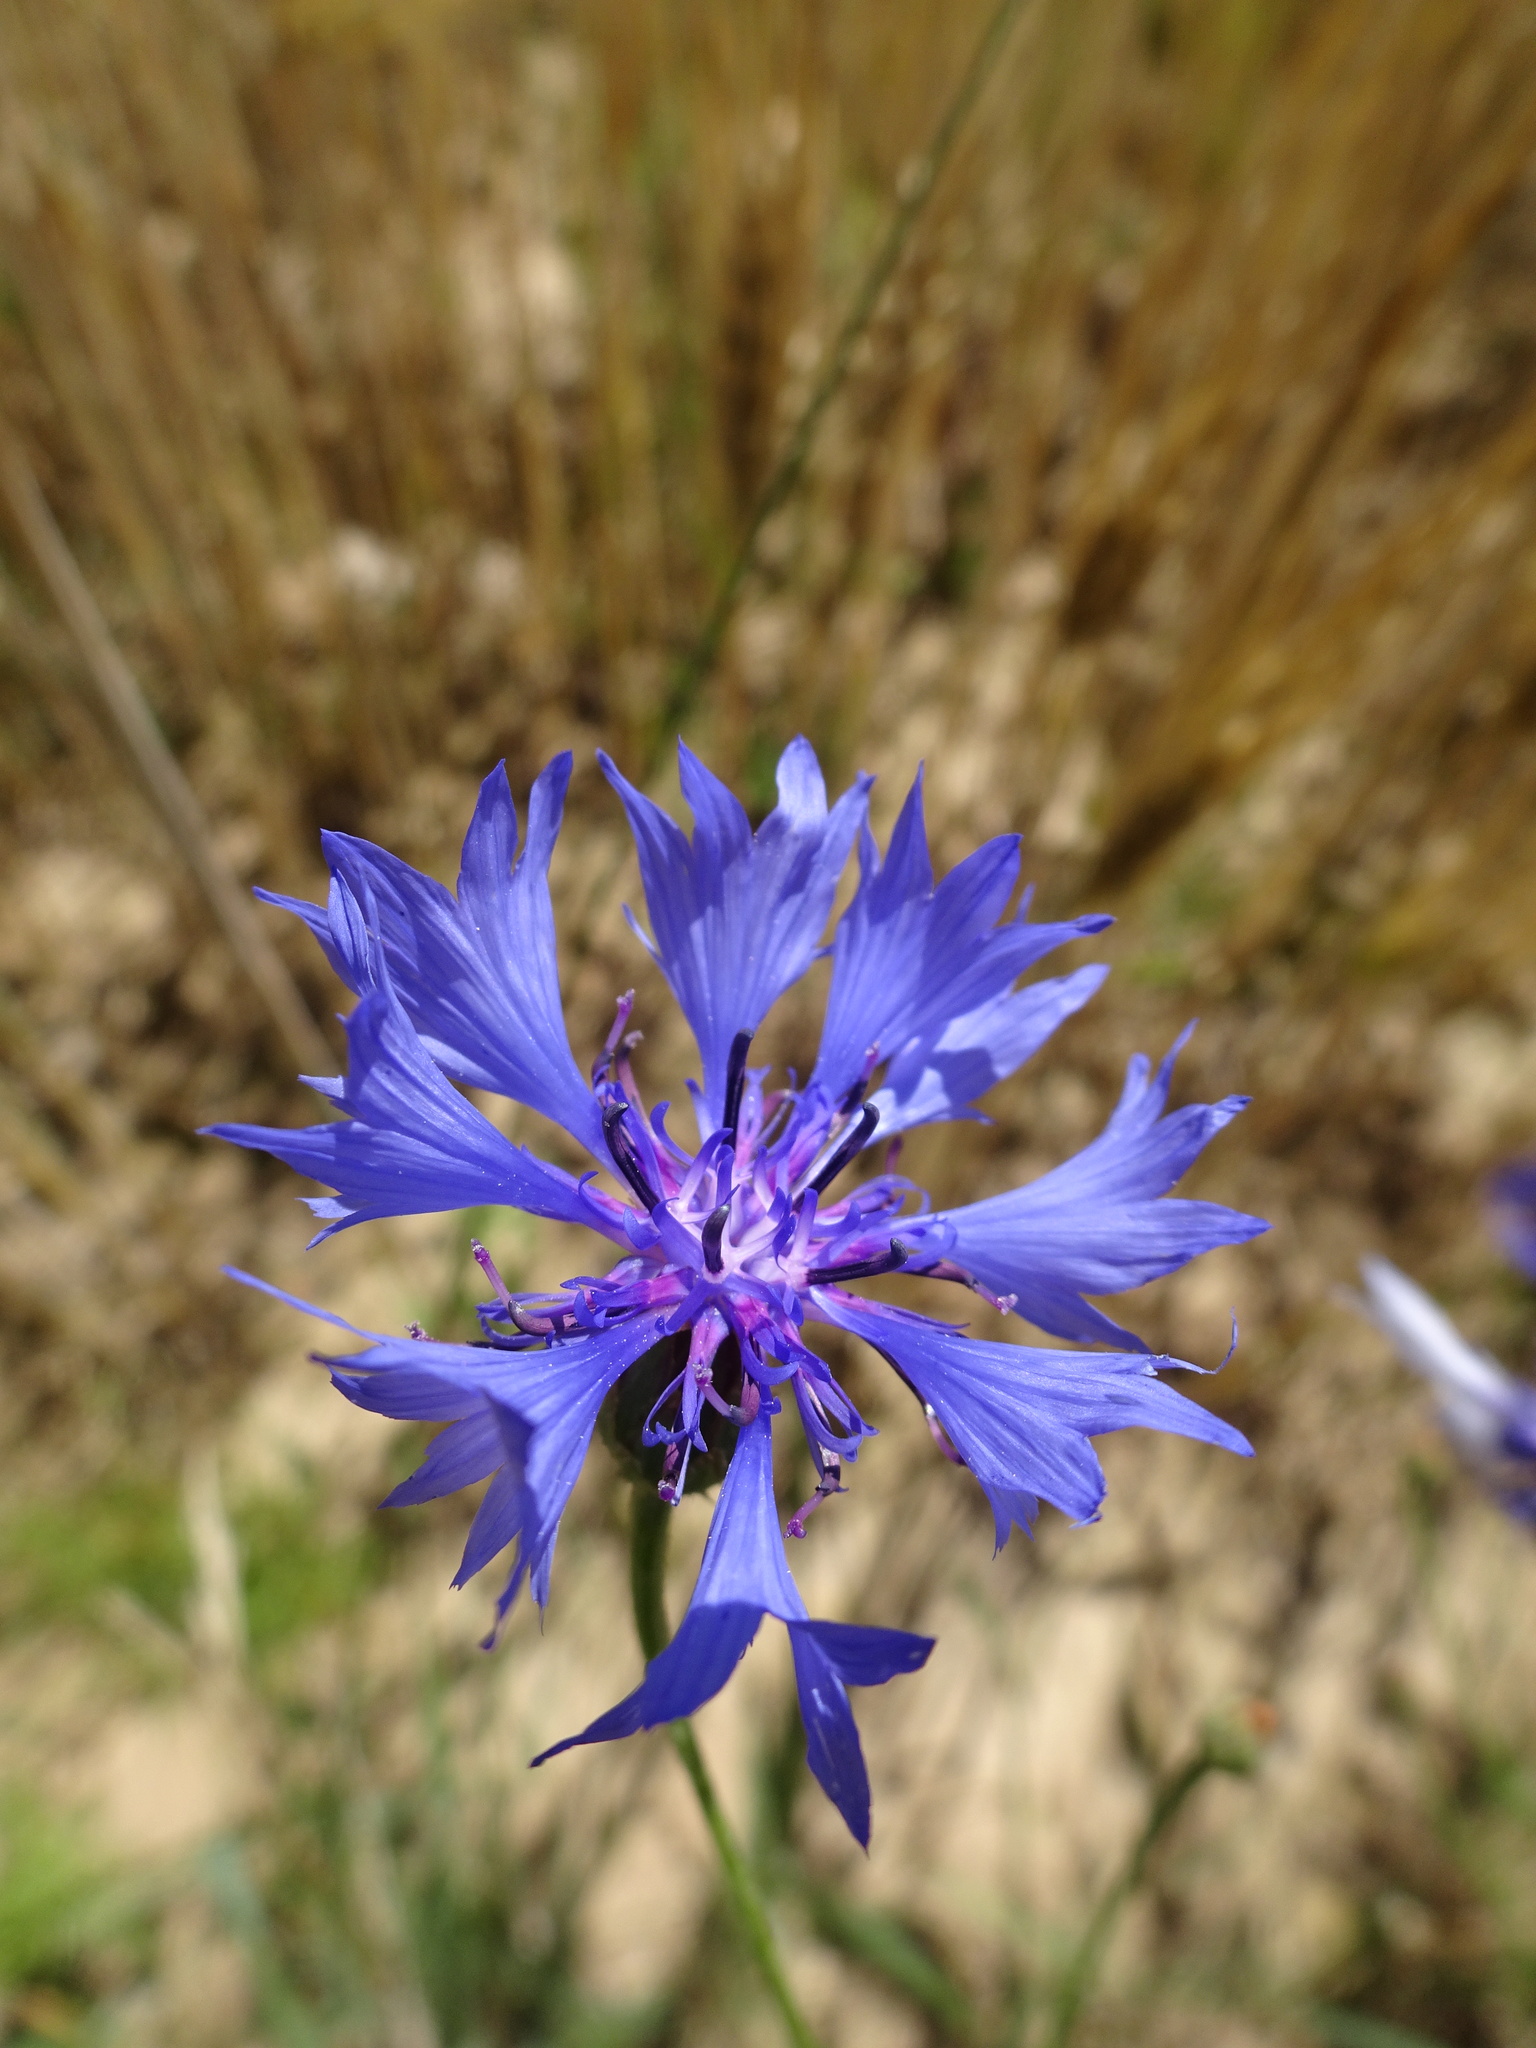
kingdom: Plantae
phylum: Tracheophyta
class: Magnoliopsida
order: Asterales
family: Asteraceae
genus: Centaurea
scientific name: Centaurea cyanus
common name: Cornflower
